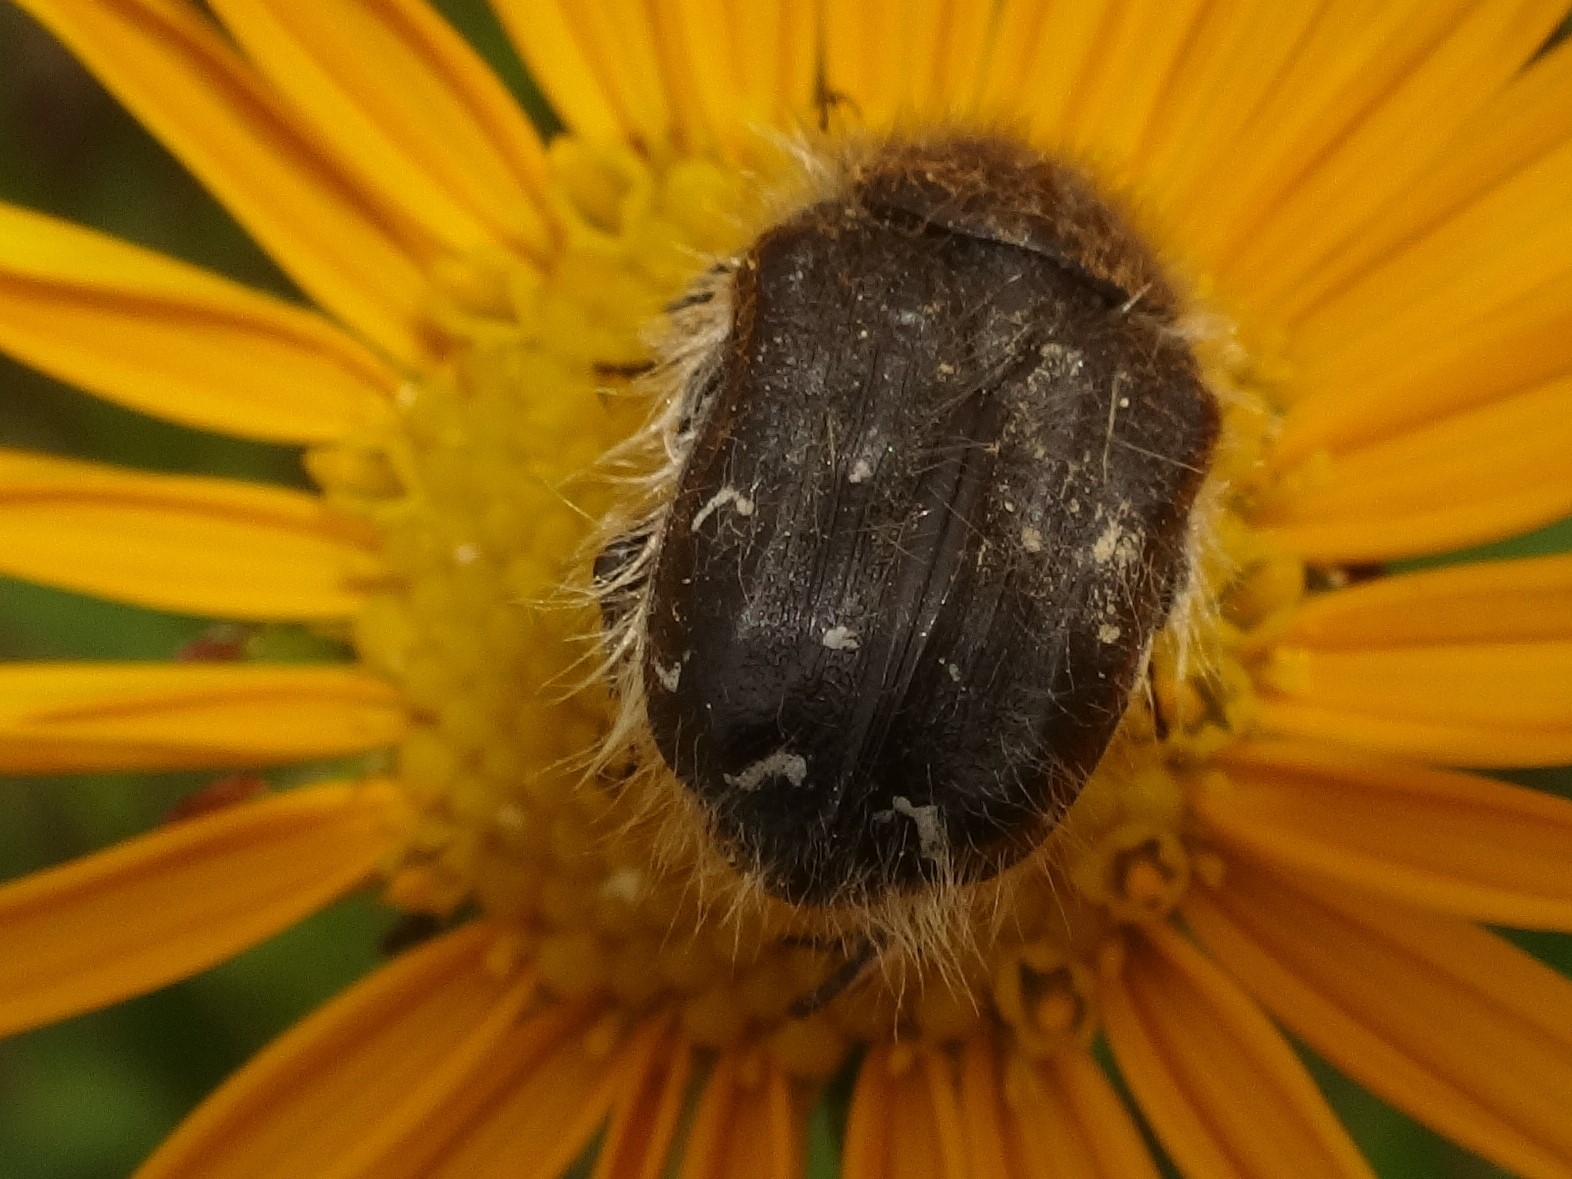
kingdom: Animalia
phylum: Arthropoda
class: Insecta
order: Coleoptera
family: Scarabaeidae
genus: Tropinota
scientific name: Tropinota hirta
